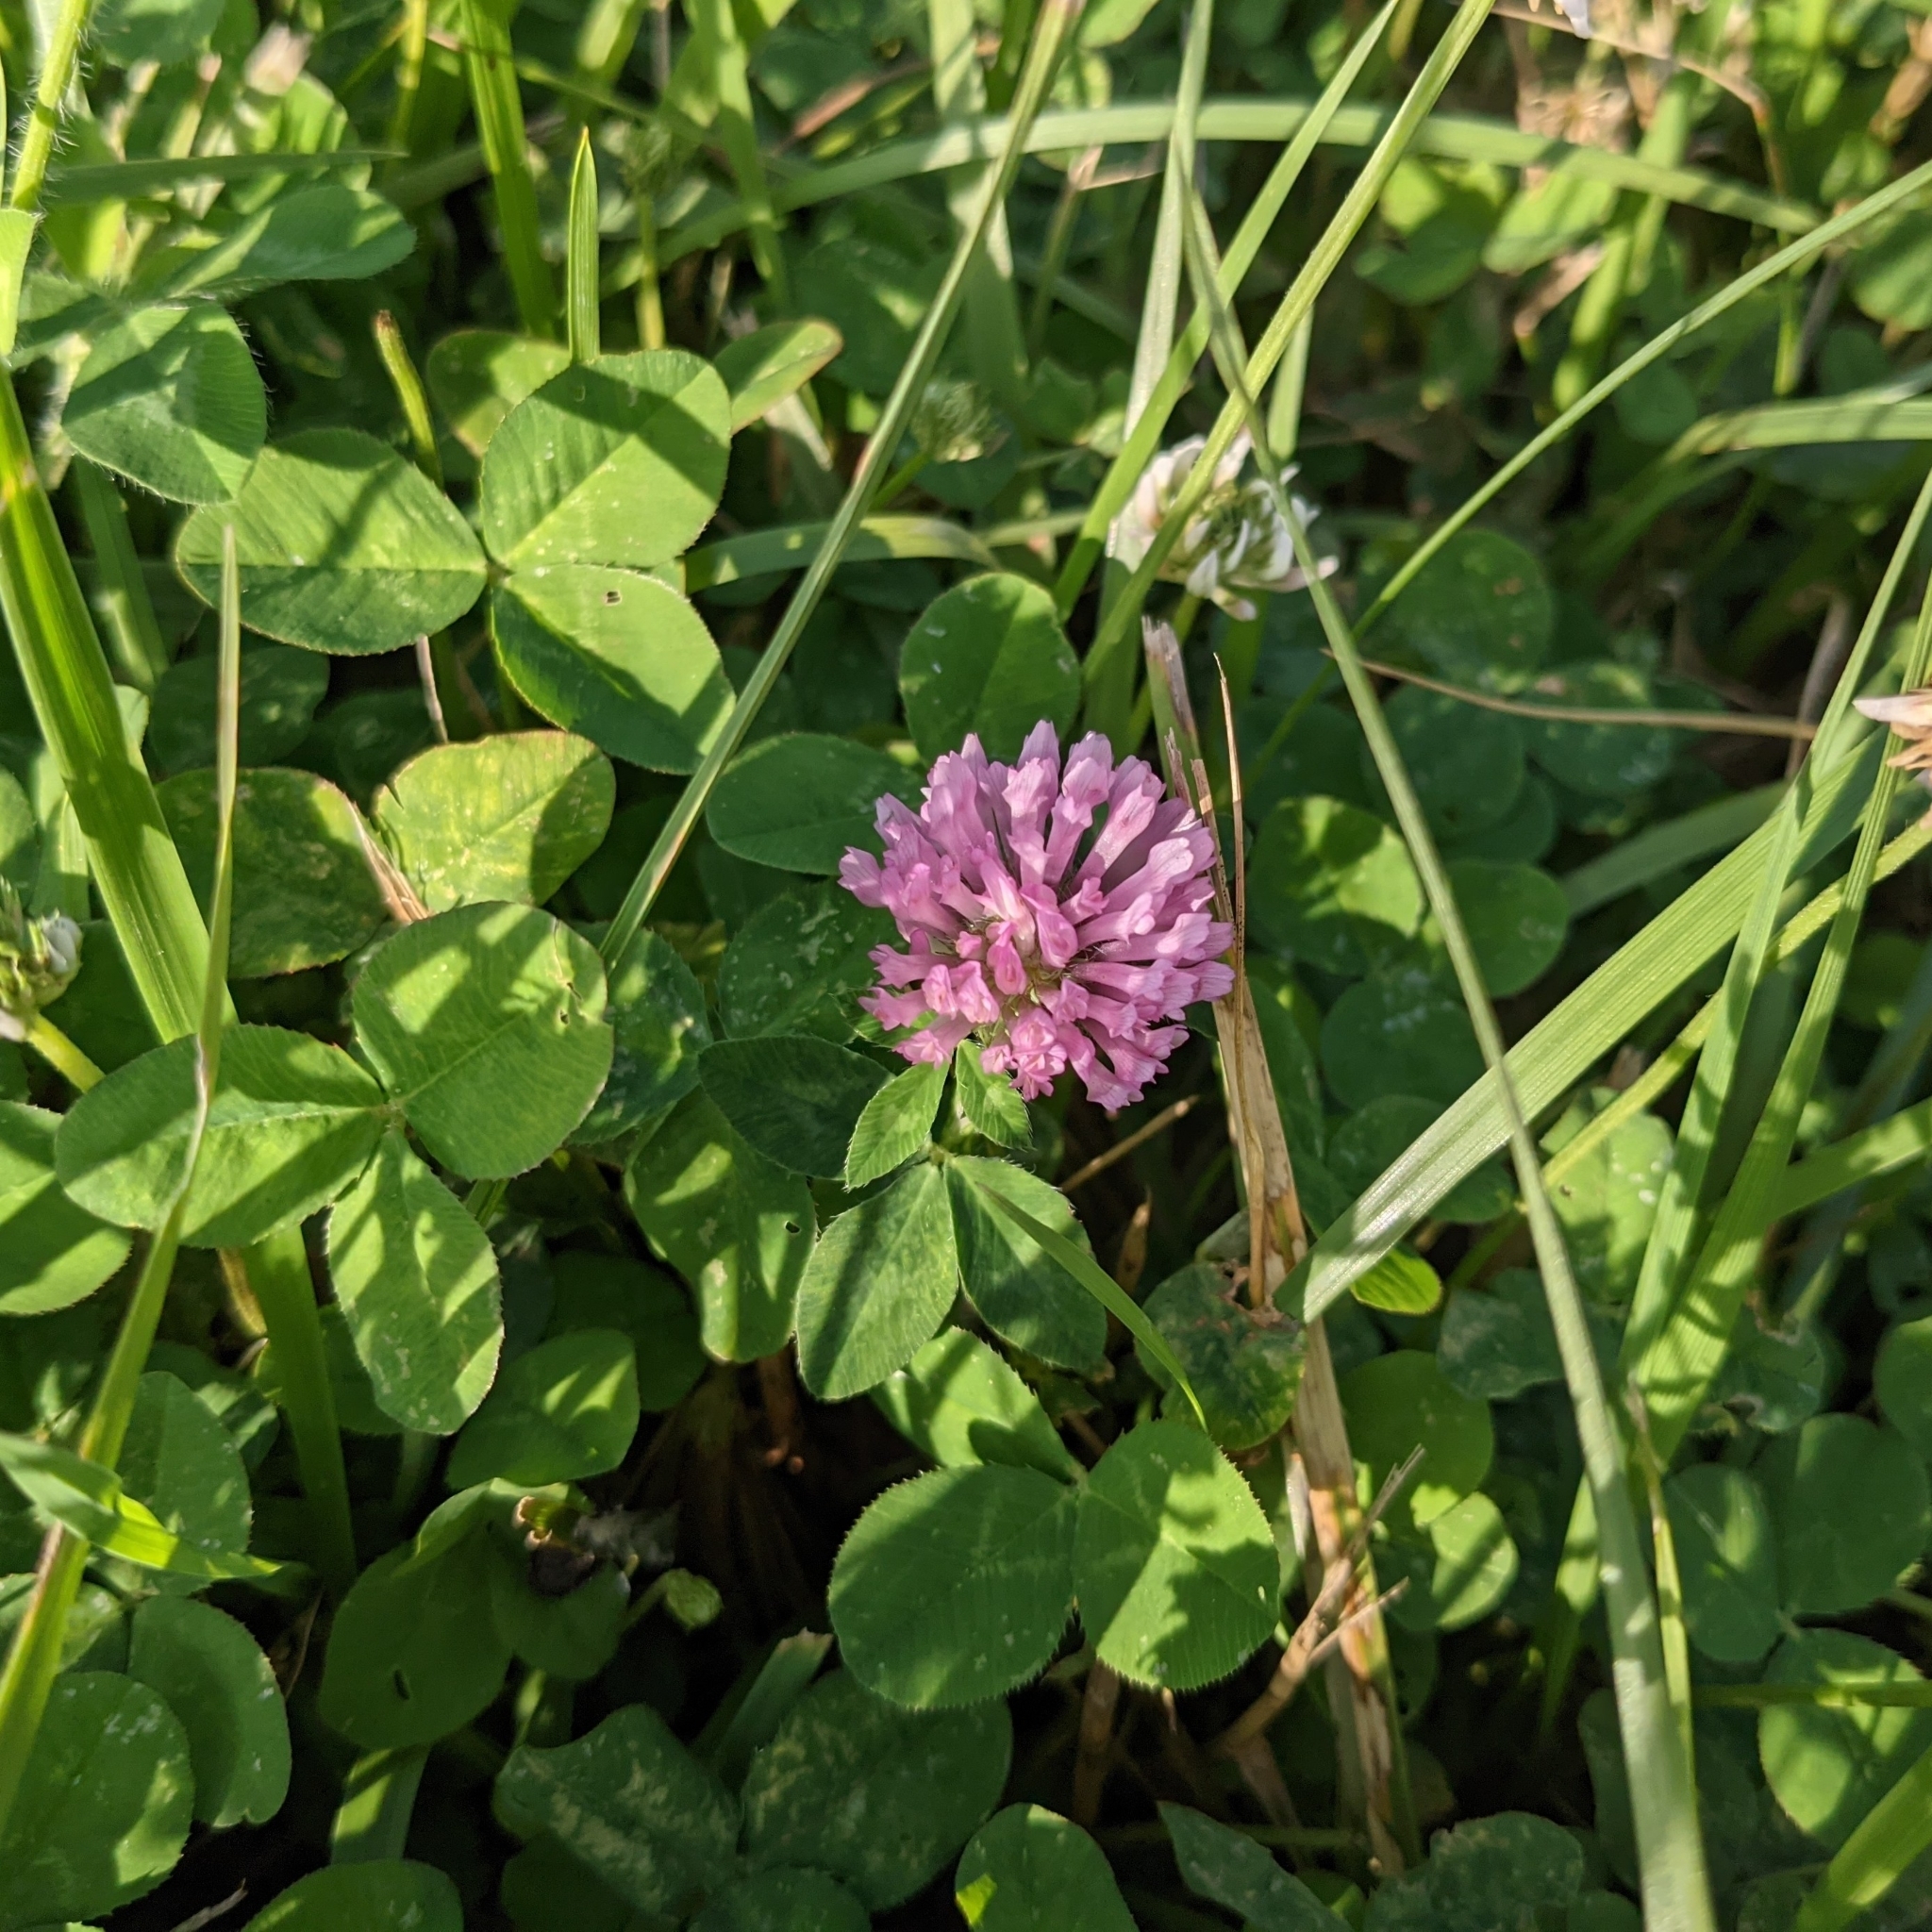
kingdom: Plantae
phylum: Tracheophyta
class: Magnoliopsida
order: Fabales
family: Fabaceae
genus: Trifolium
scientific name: Trifolium pratense
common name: Red clover
